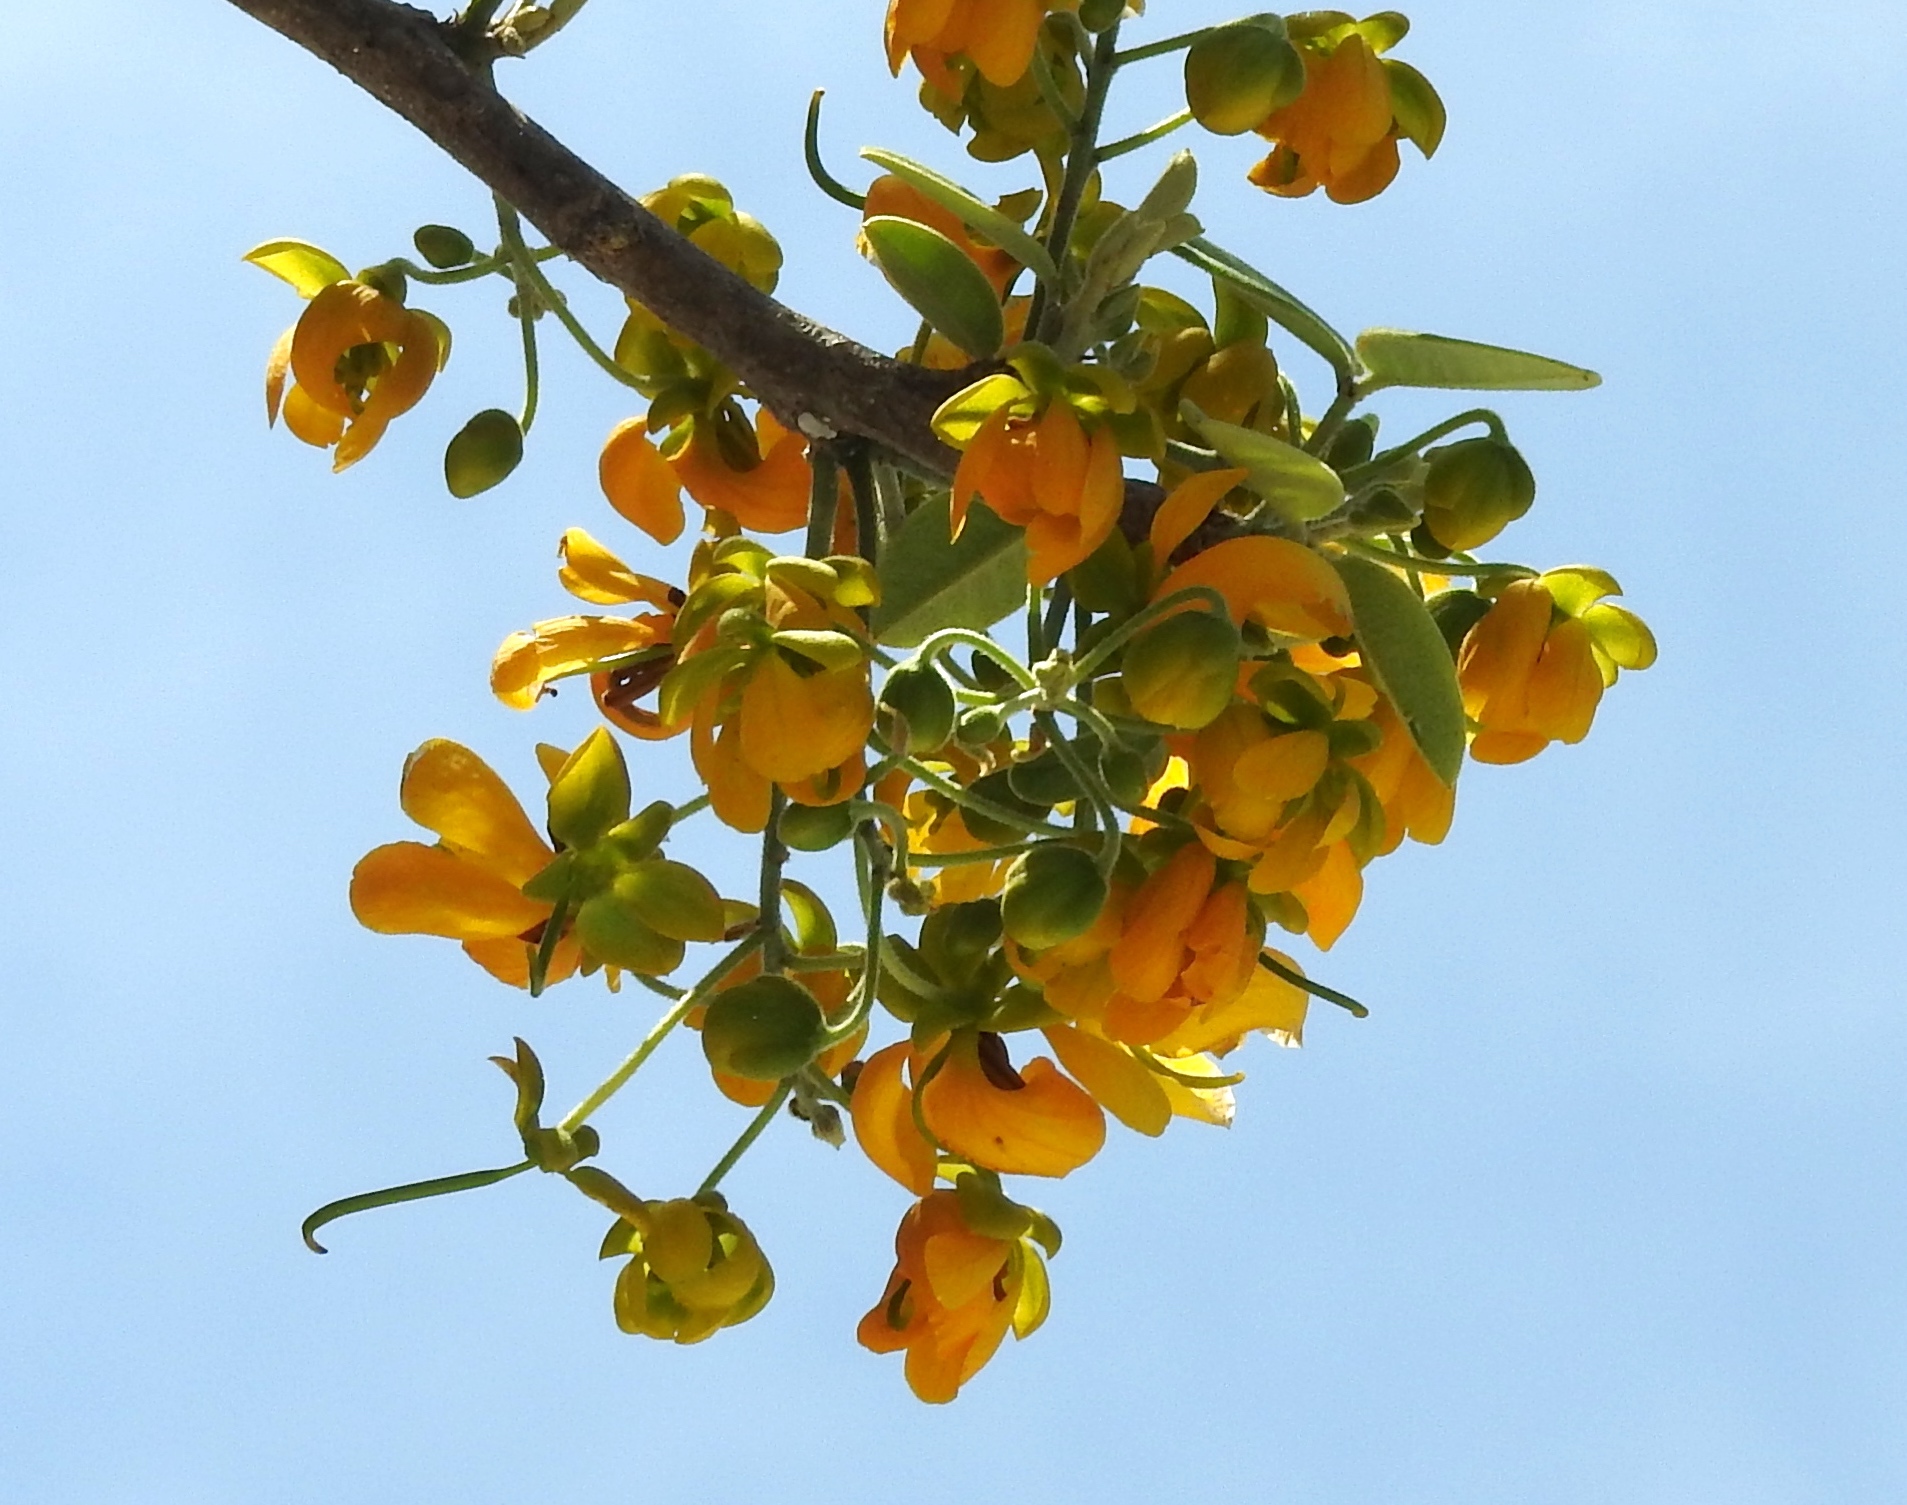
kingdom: Plantae
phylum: Tracheophyta
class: Magnoliopsida
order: Fabales
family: Fabaceae
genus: Senna
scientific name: Senna atomaria
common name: Flor de san jose
